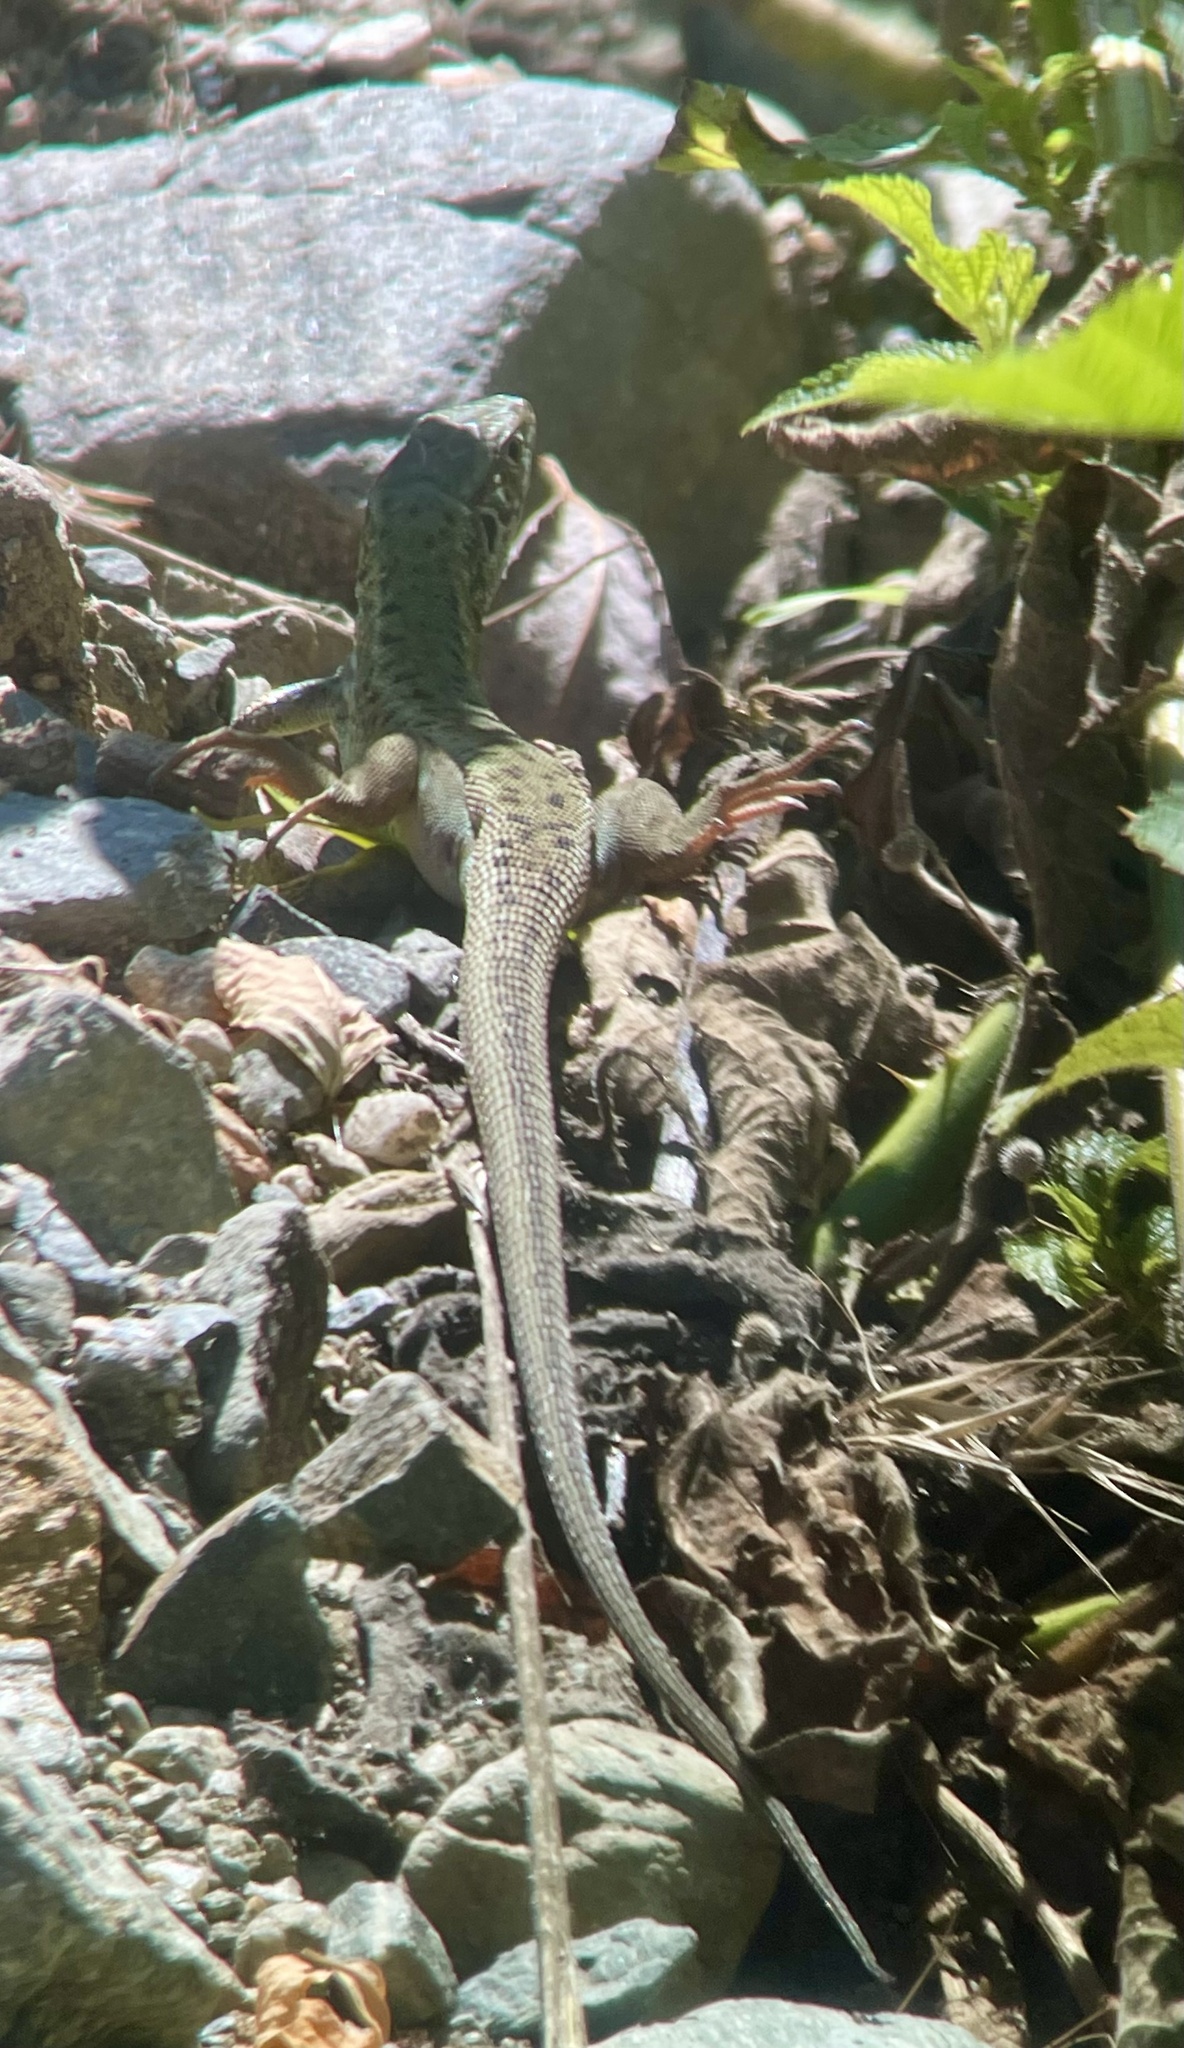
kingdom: Animalia
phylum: Chordata
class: Squamata
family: Lacertidae
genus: Lacerta
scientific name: Lacerta viridis
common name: European green lizard
